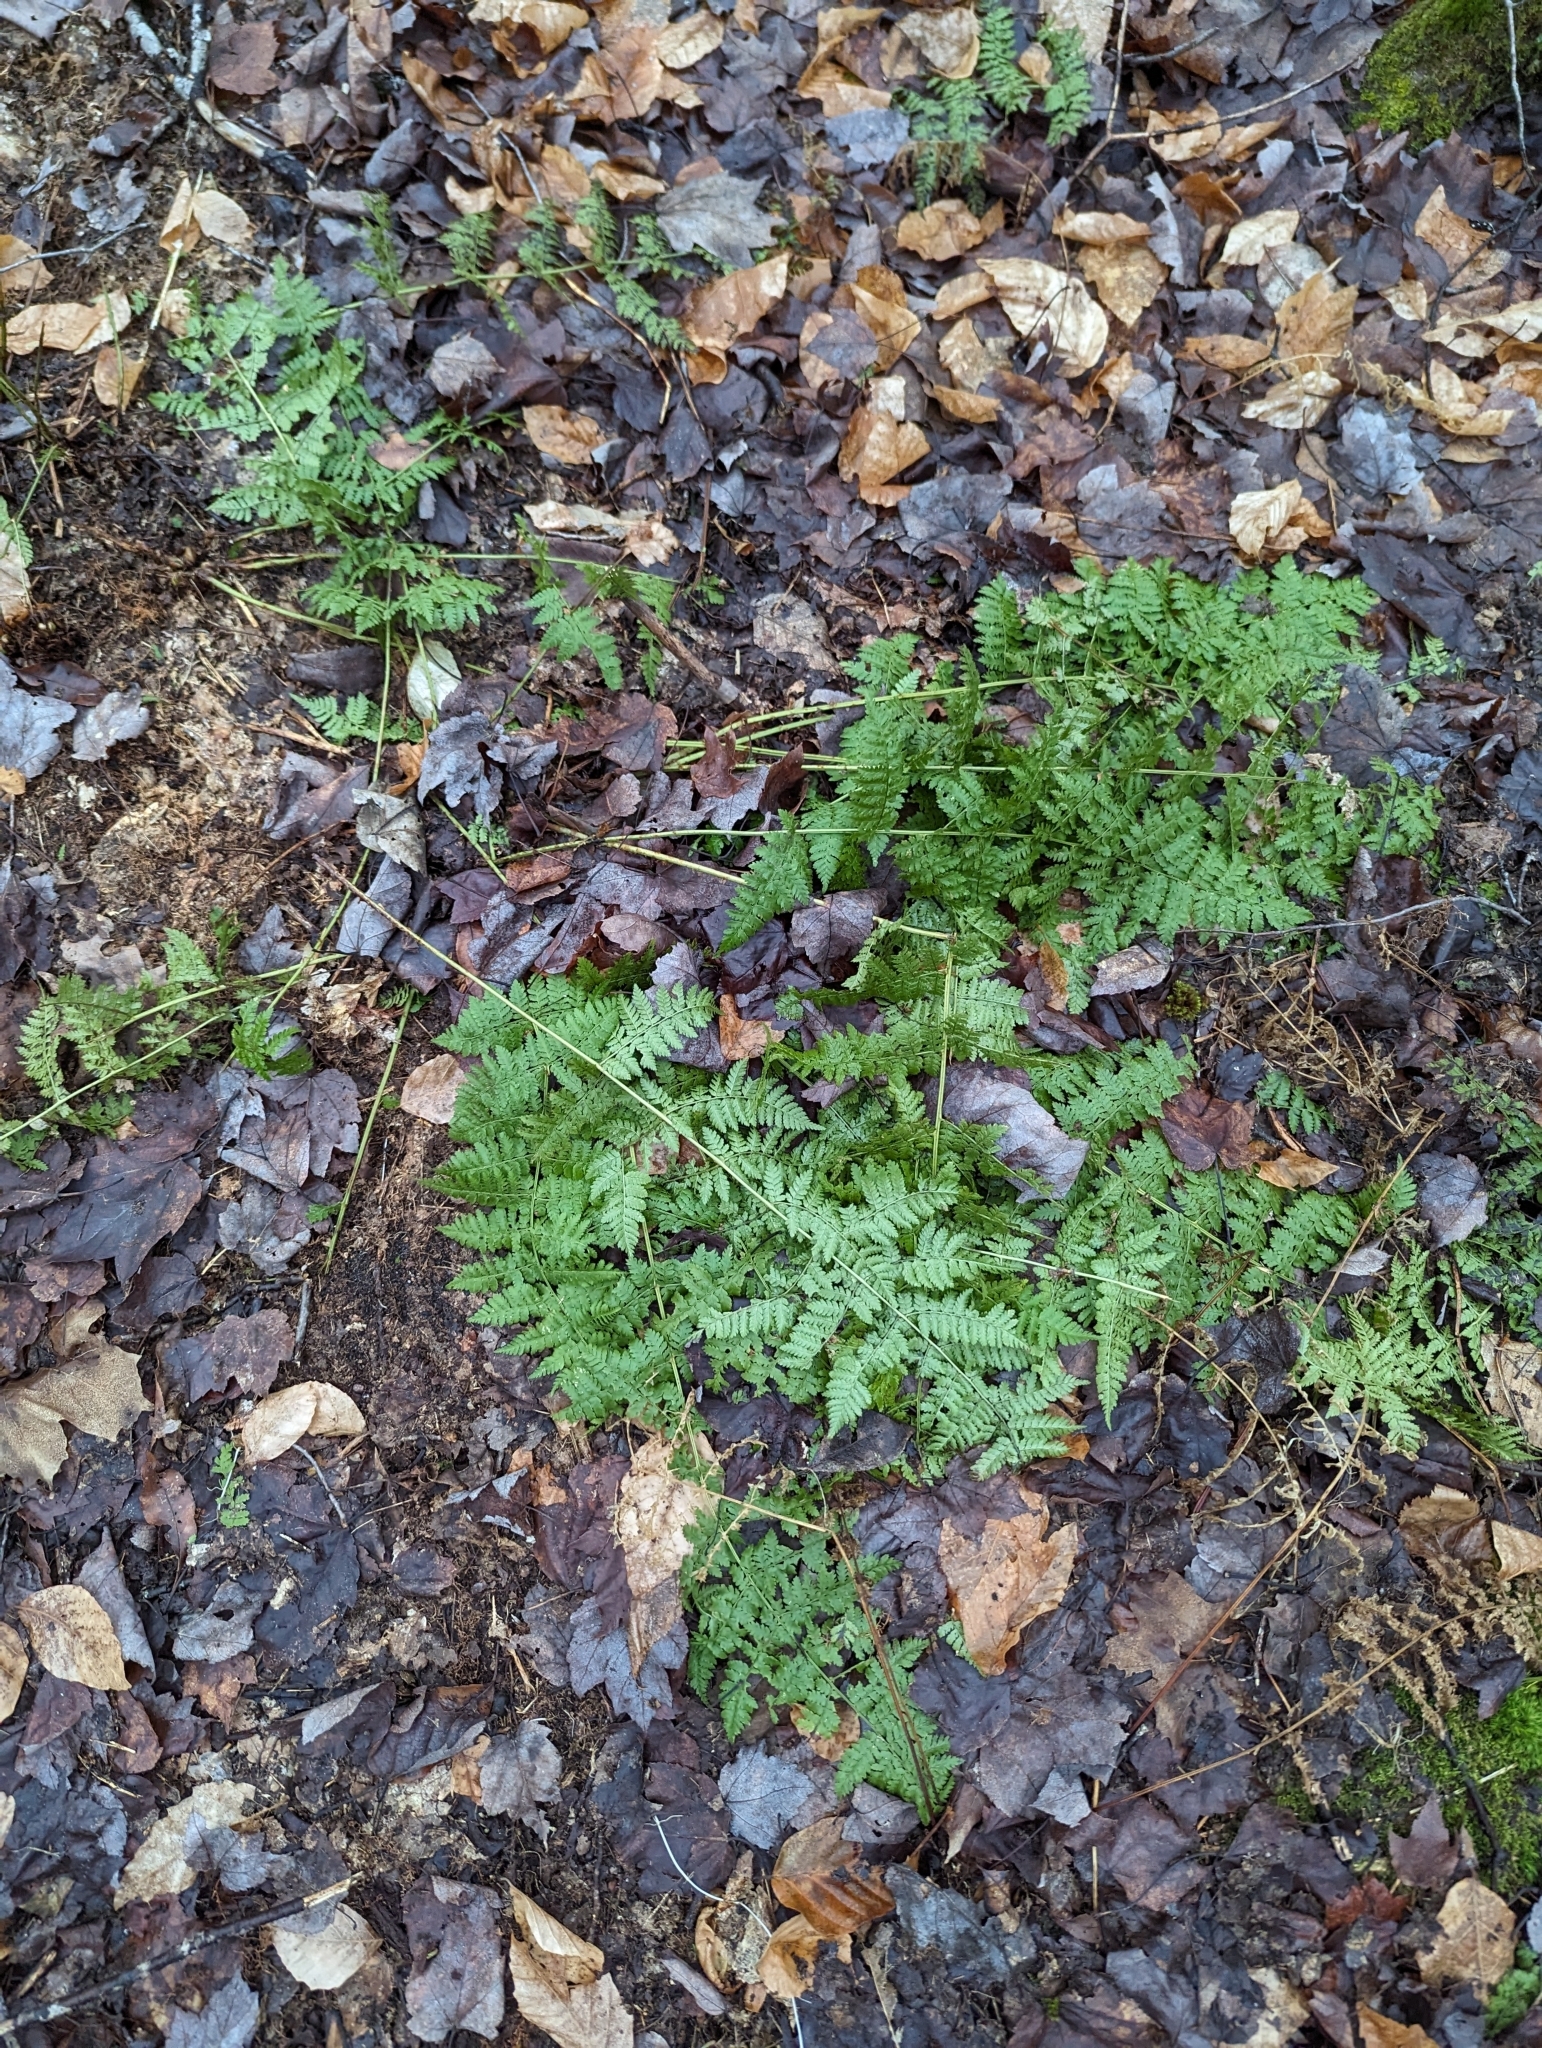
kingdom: Plantae
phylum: Tracheophyta
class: Polypodiopsida
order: Polypodiales
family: Dryopteridaceae
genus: Dryopteris
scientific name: Dryopteris intermedia
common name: Evergreen wood fern
